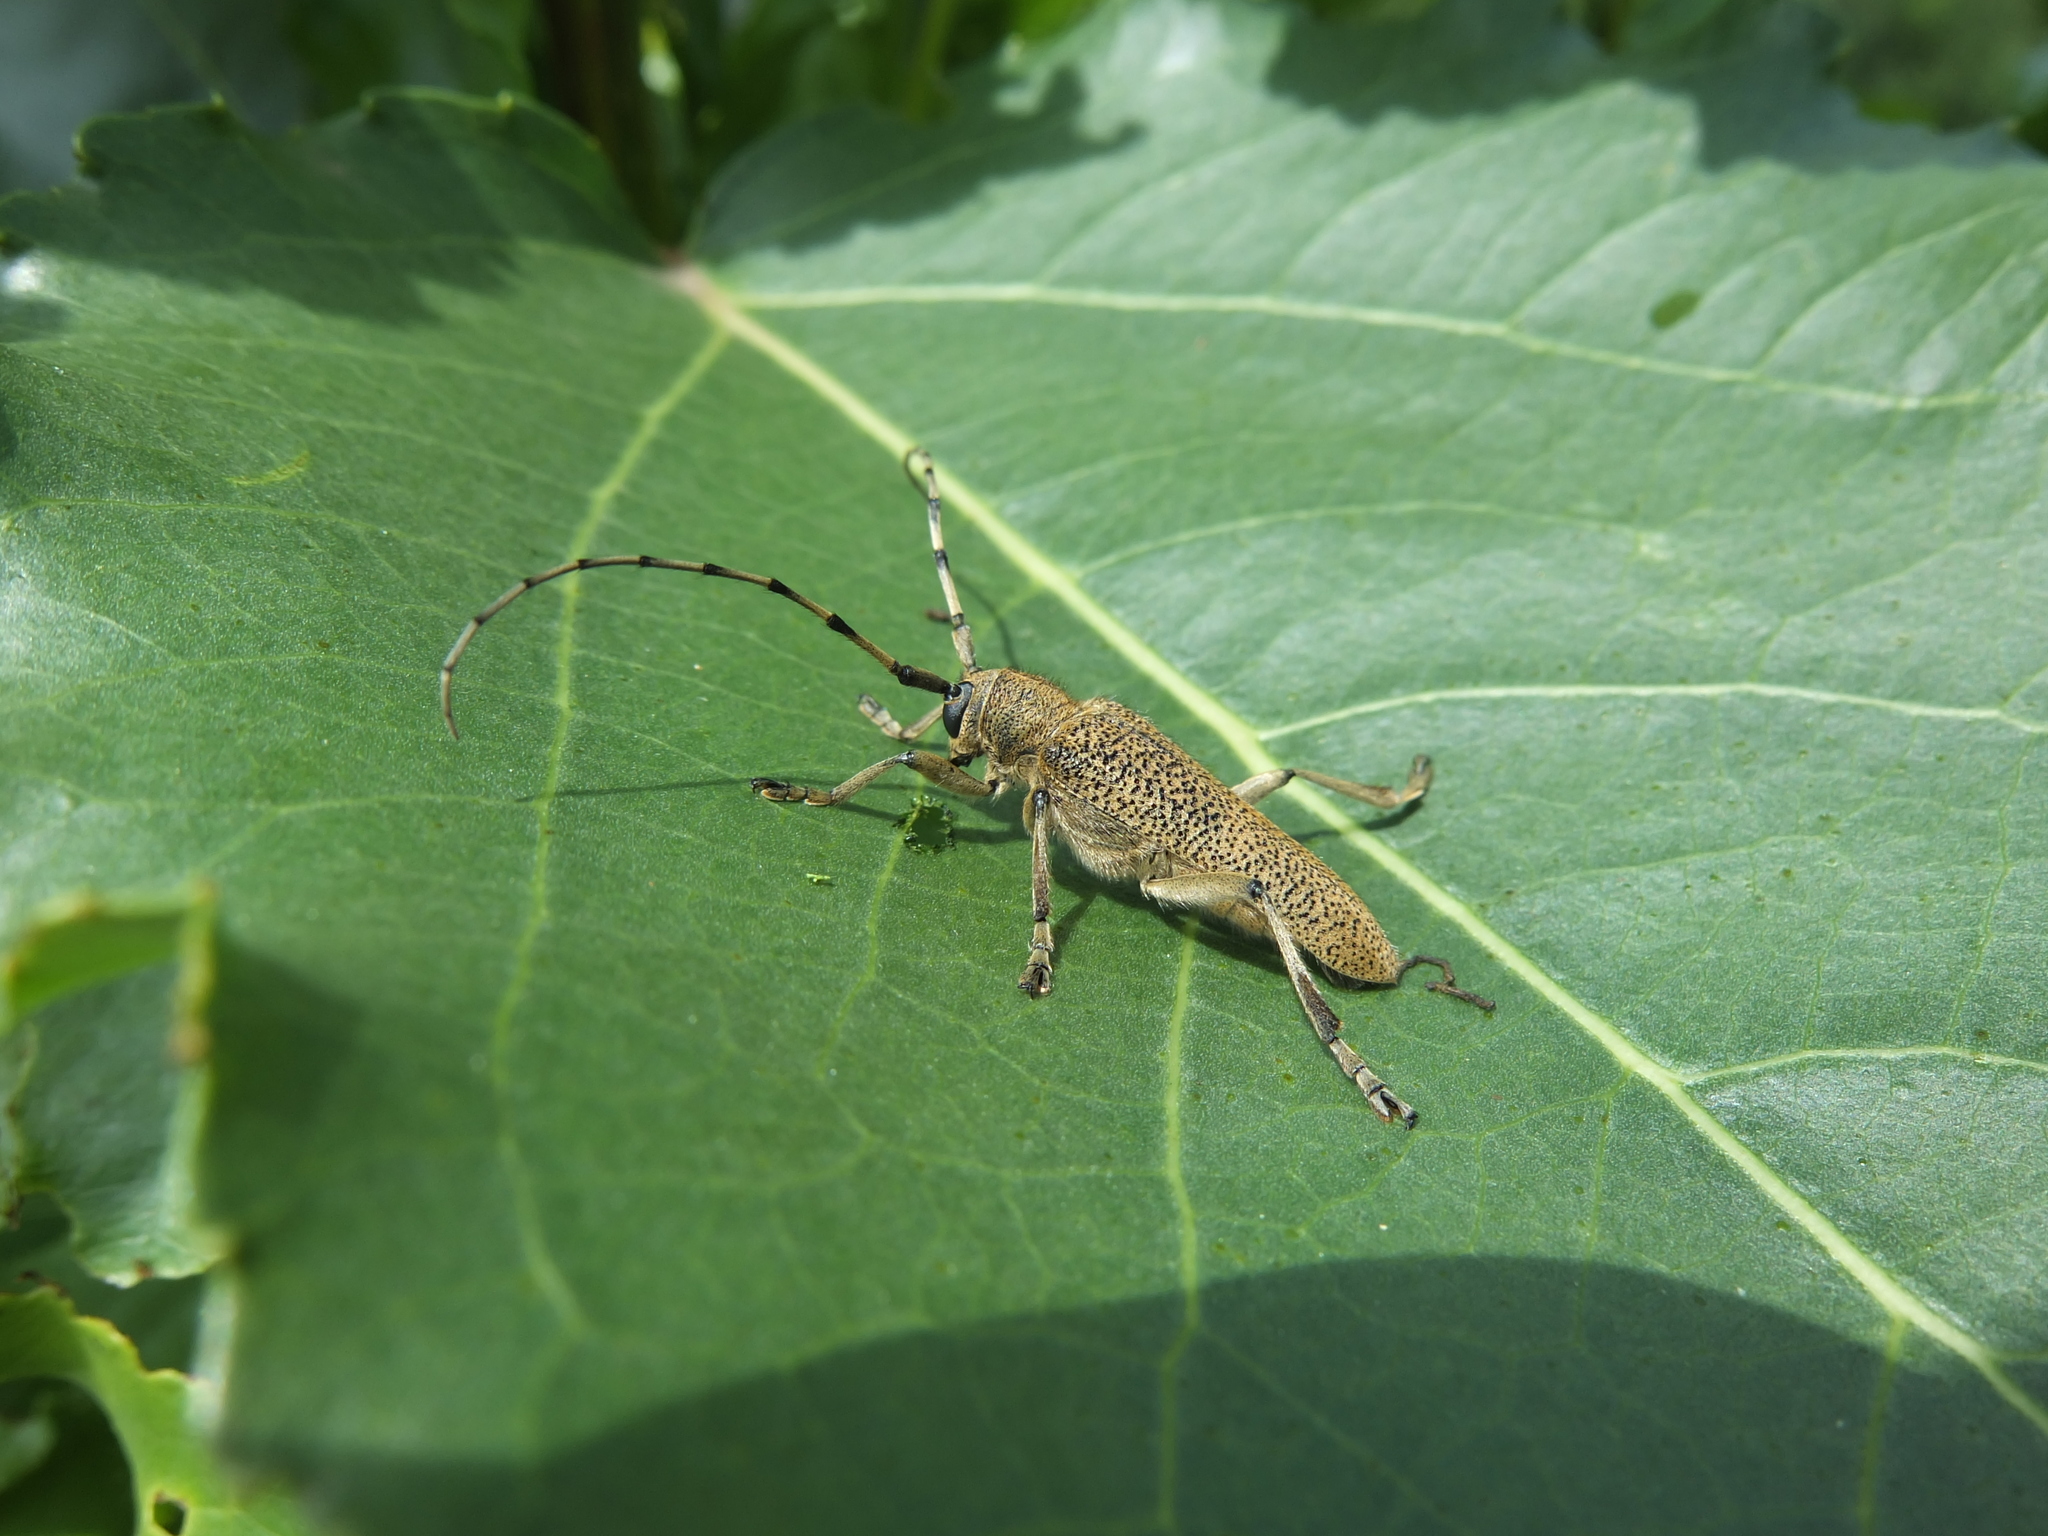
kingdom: Animalia
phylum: Arthropoda
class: Insecta
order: Coleoptera
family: Cerambycidae
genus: Saperda
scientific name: Saperda carcharias
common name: Poplar borer
